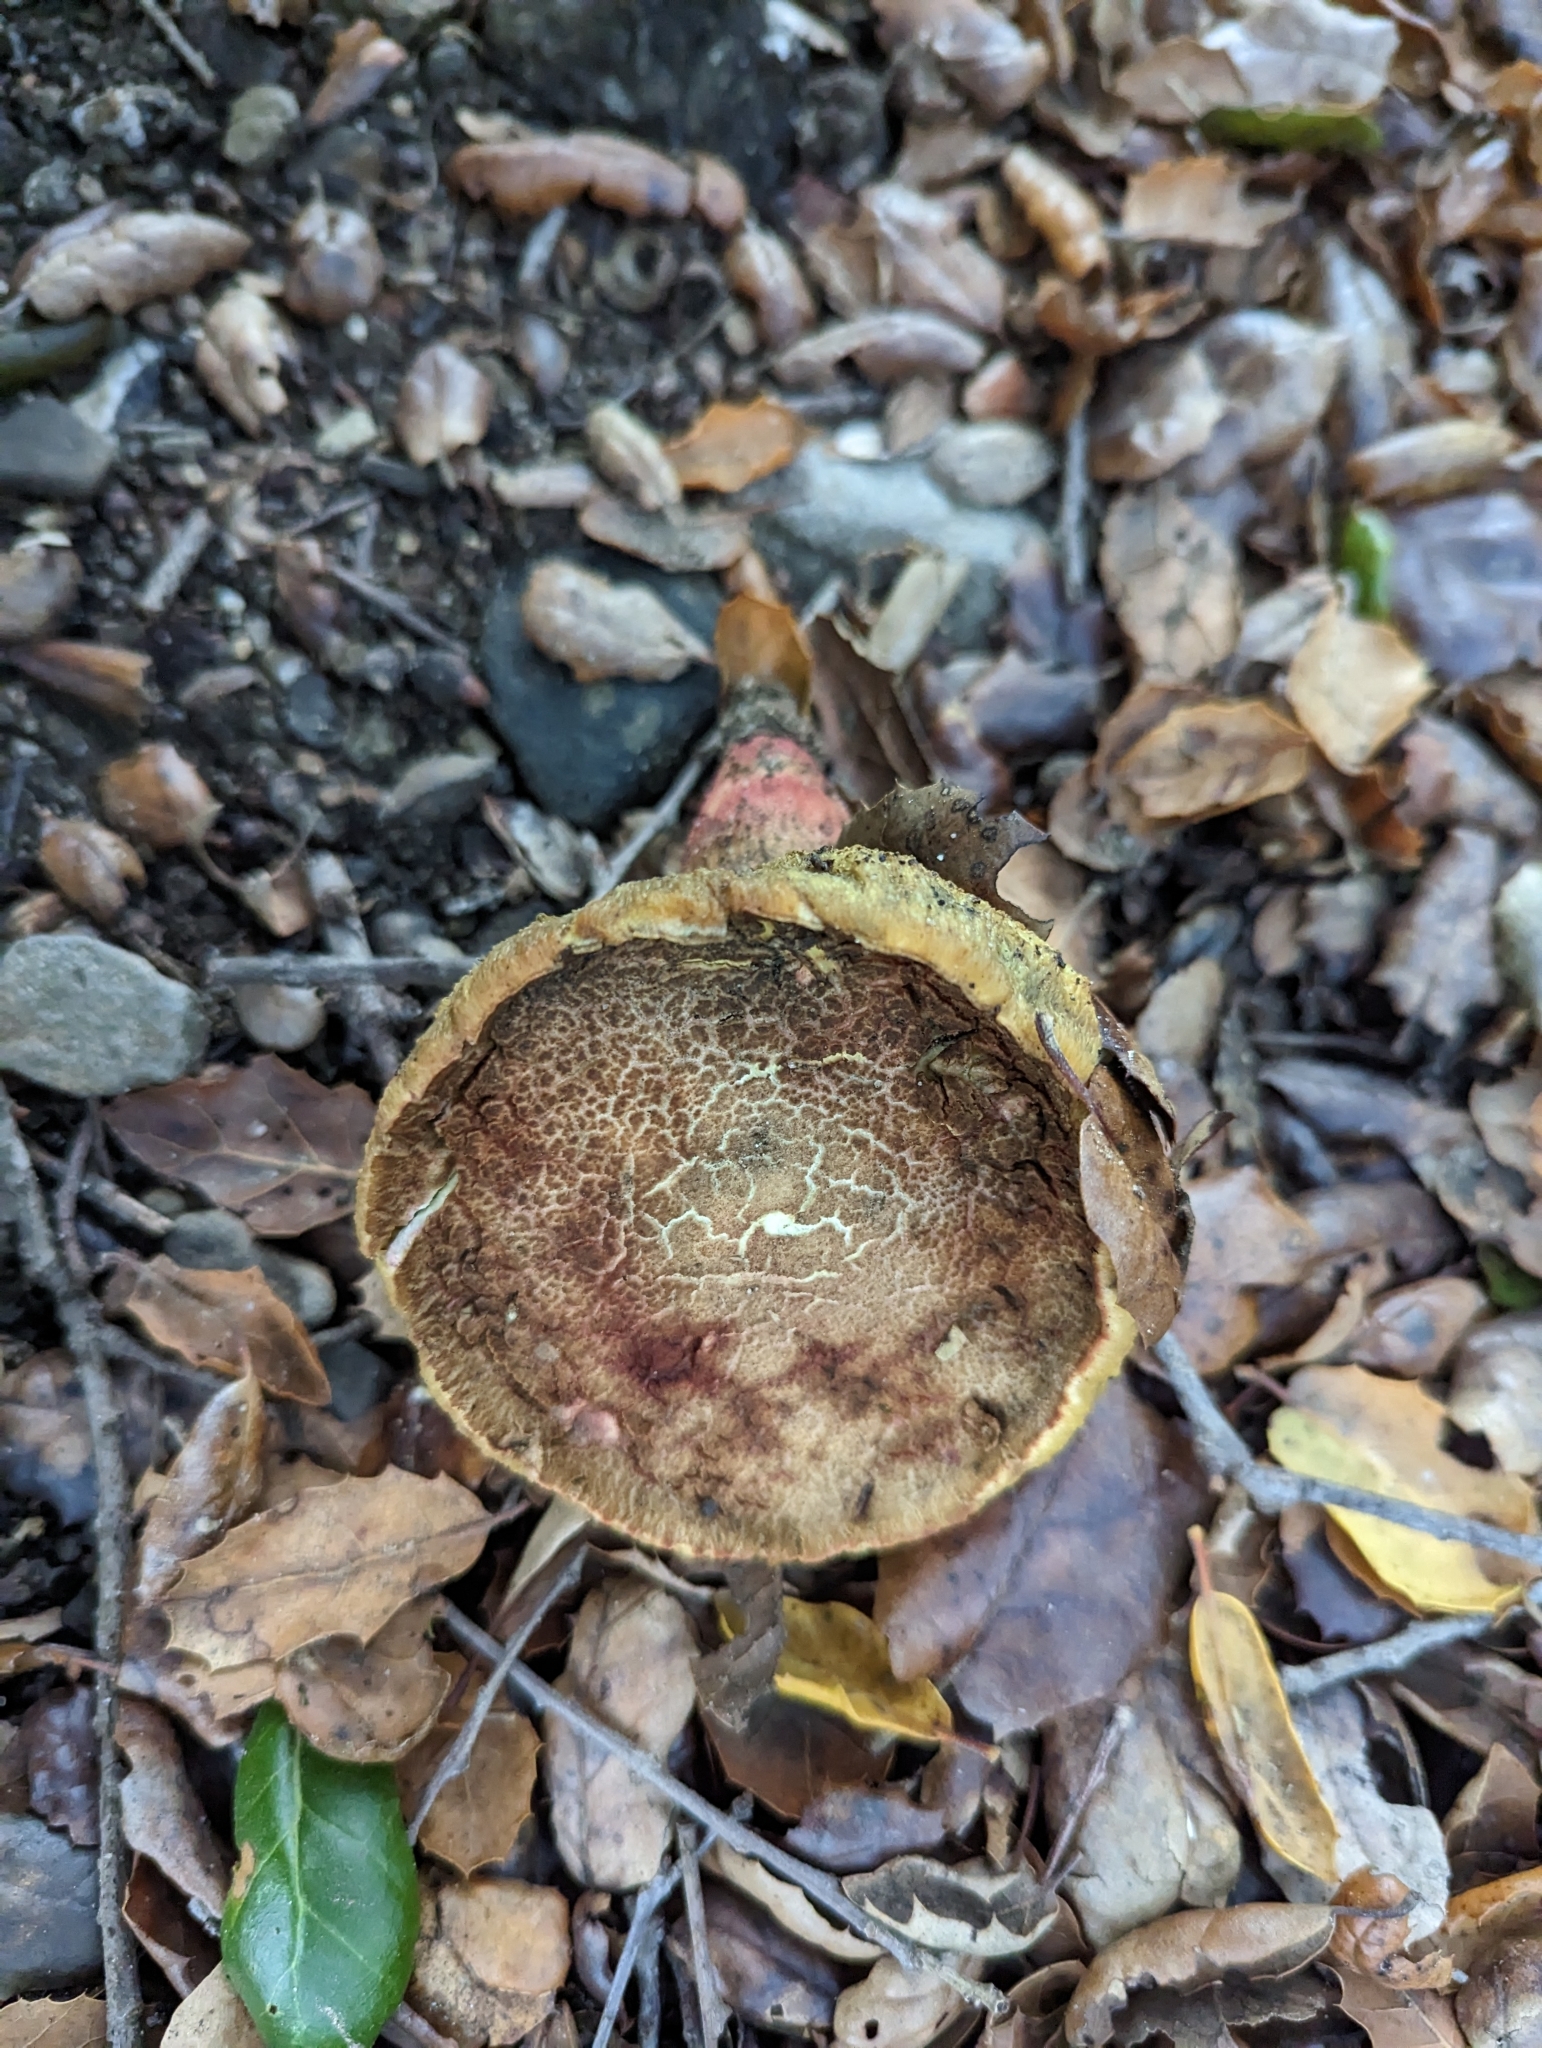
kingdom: Fungi
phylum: Basidiomycota
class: Agaricomycetes
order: Boletales
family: Boletaceae
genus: Xerocomellus
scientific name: Xerocomellus dryophilus
